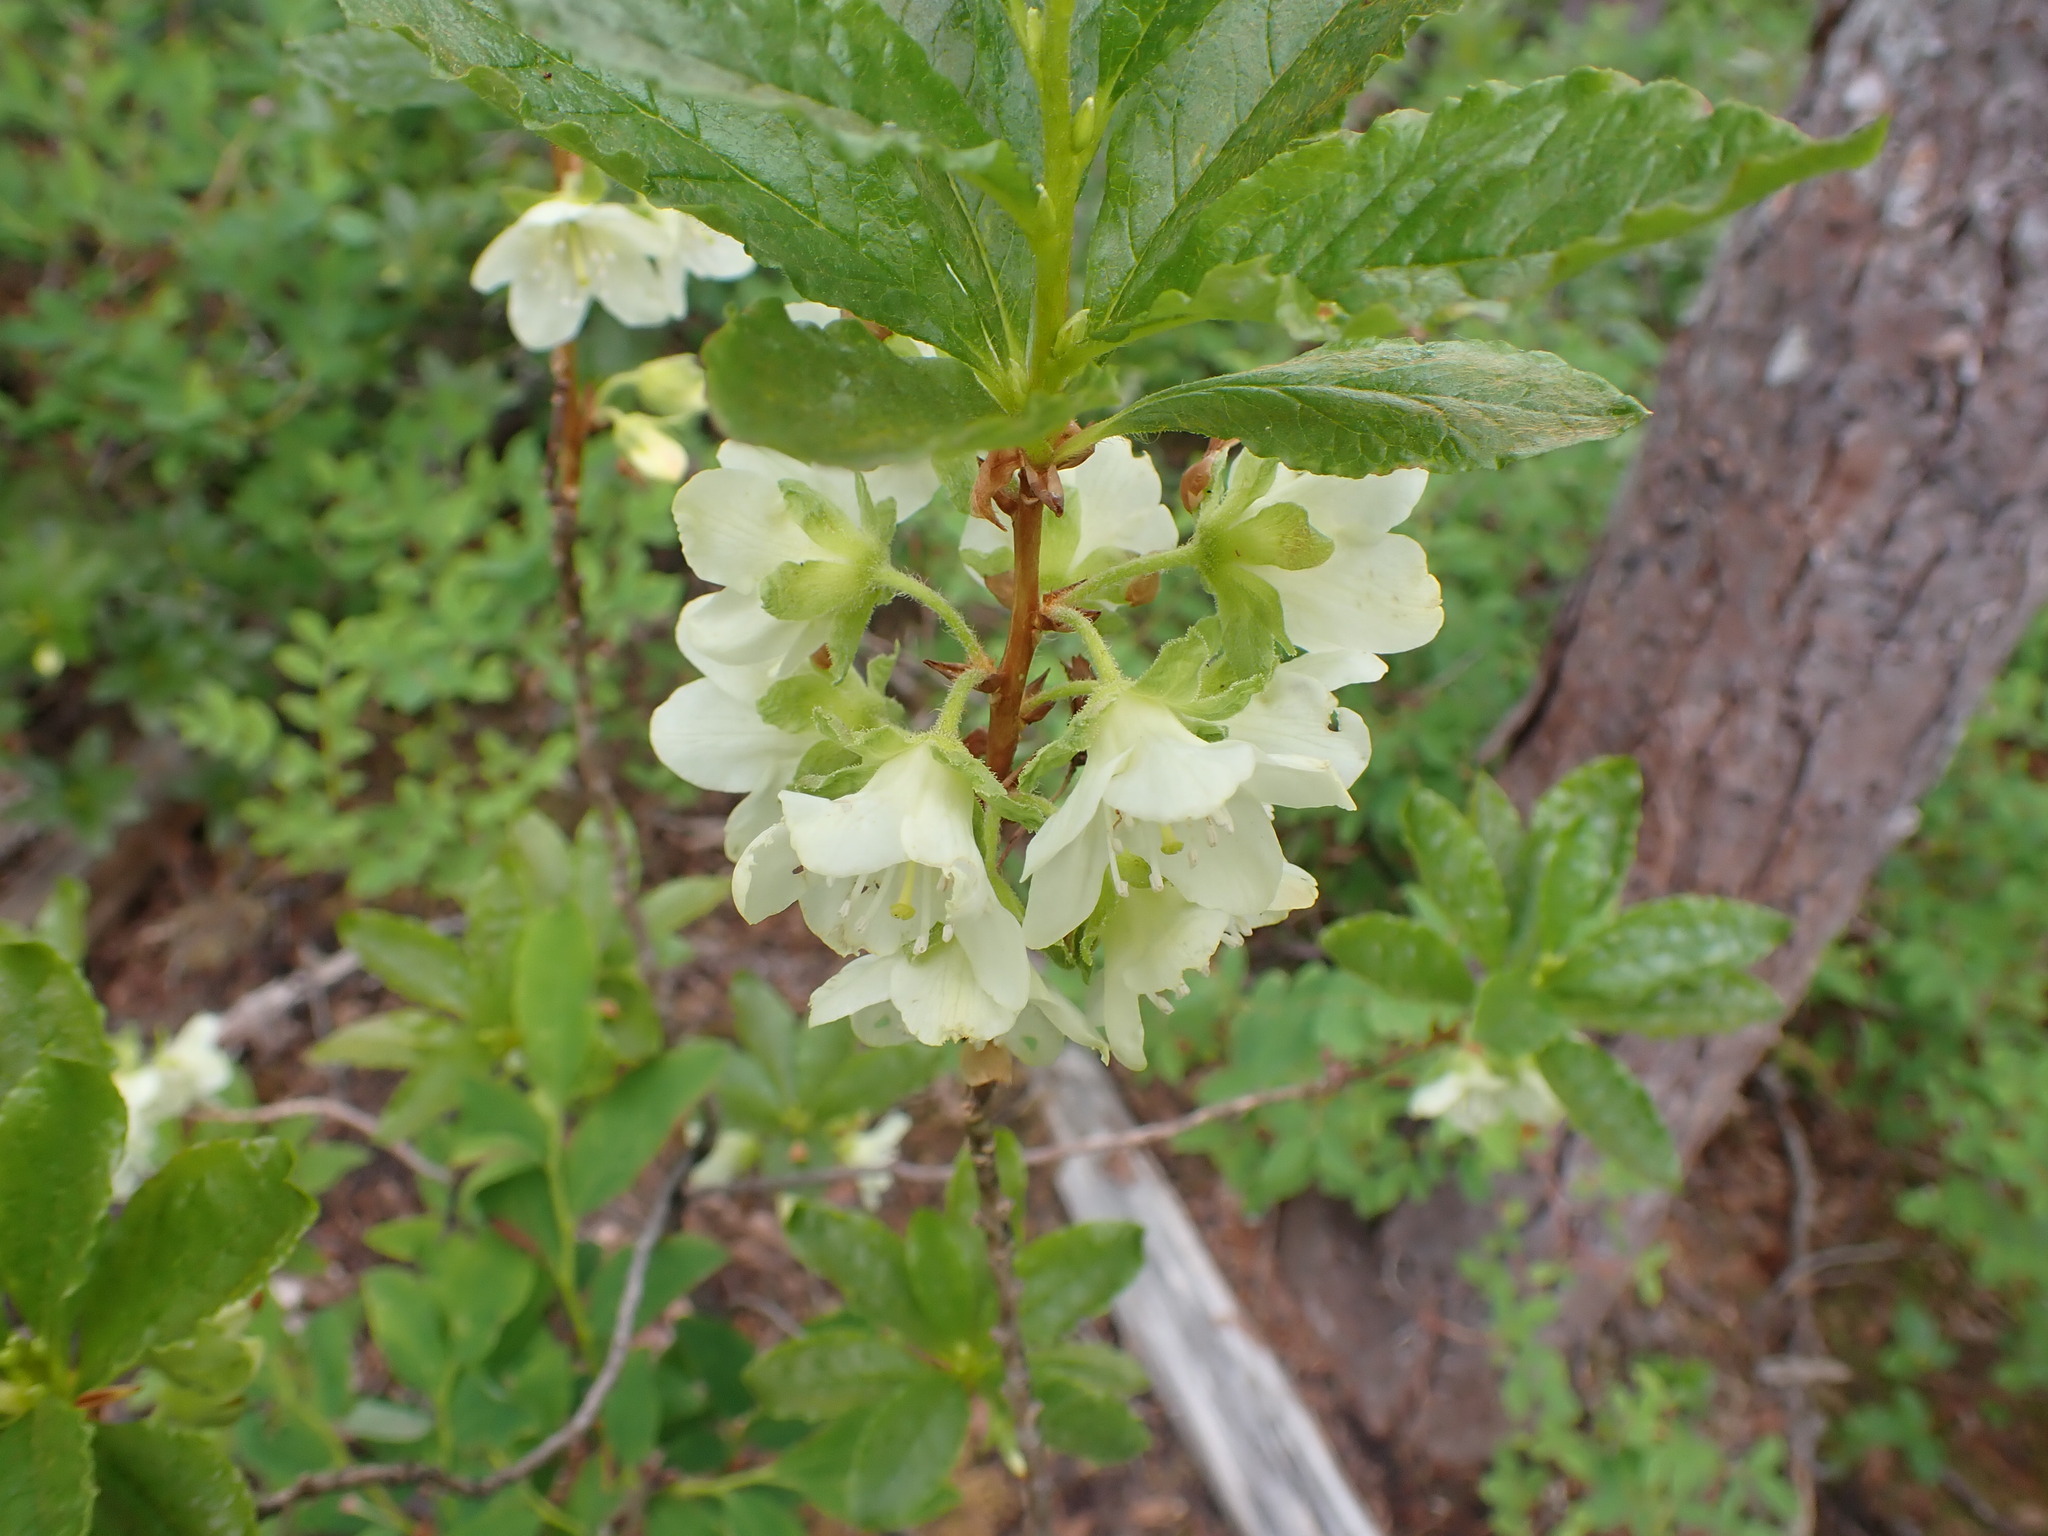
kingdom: Plantae
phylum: Tracheophyta
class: Magnoliopsida
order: Ericales
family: Ericaceae
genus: Rhododendron
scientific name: Rhododendron albiflorum
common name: White rhododendron
